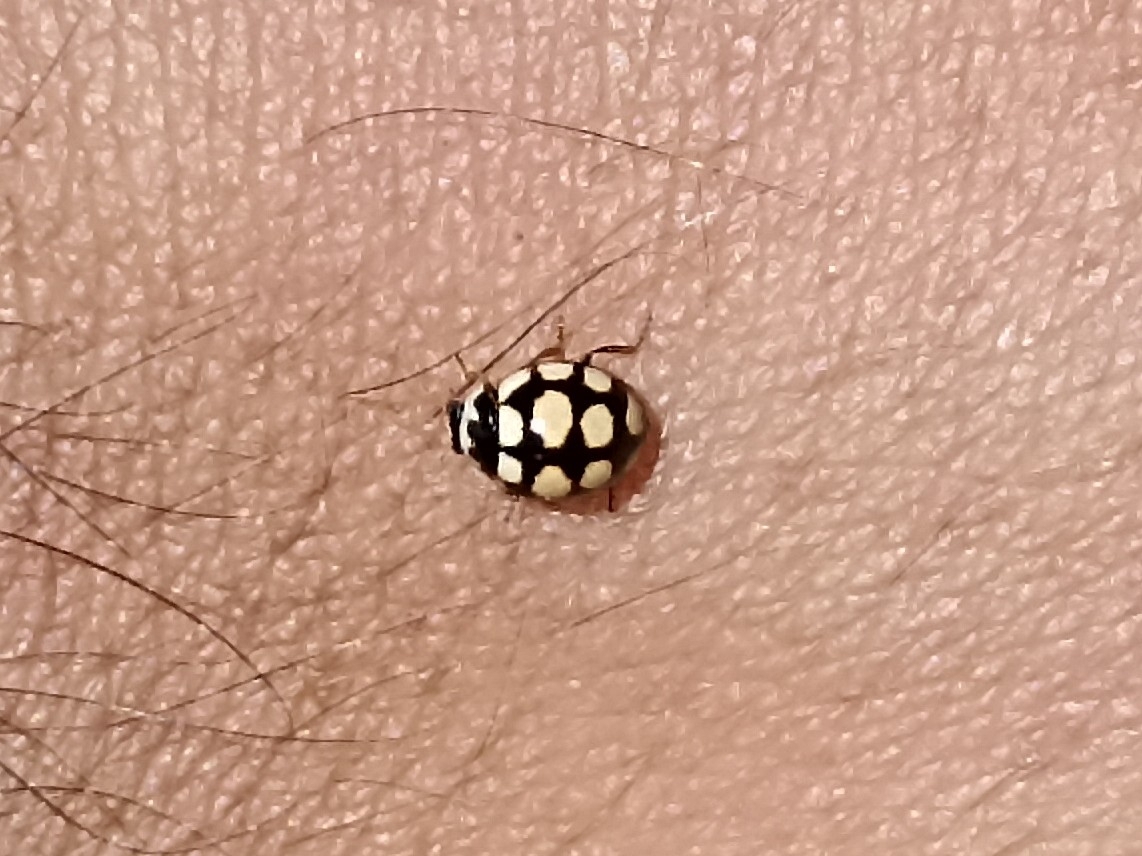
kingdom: Animalia
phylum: Arthropoda
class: Insecta
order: Coleoptera
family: Coccinellidae
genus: Coccinula
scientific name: Coccinula quatuordecimpustulata
